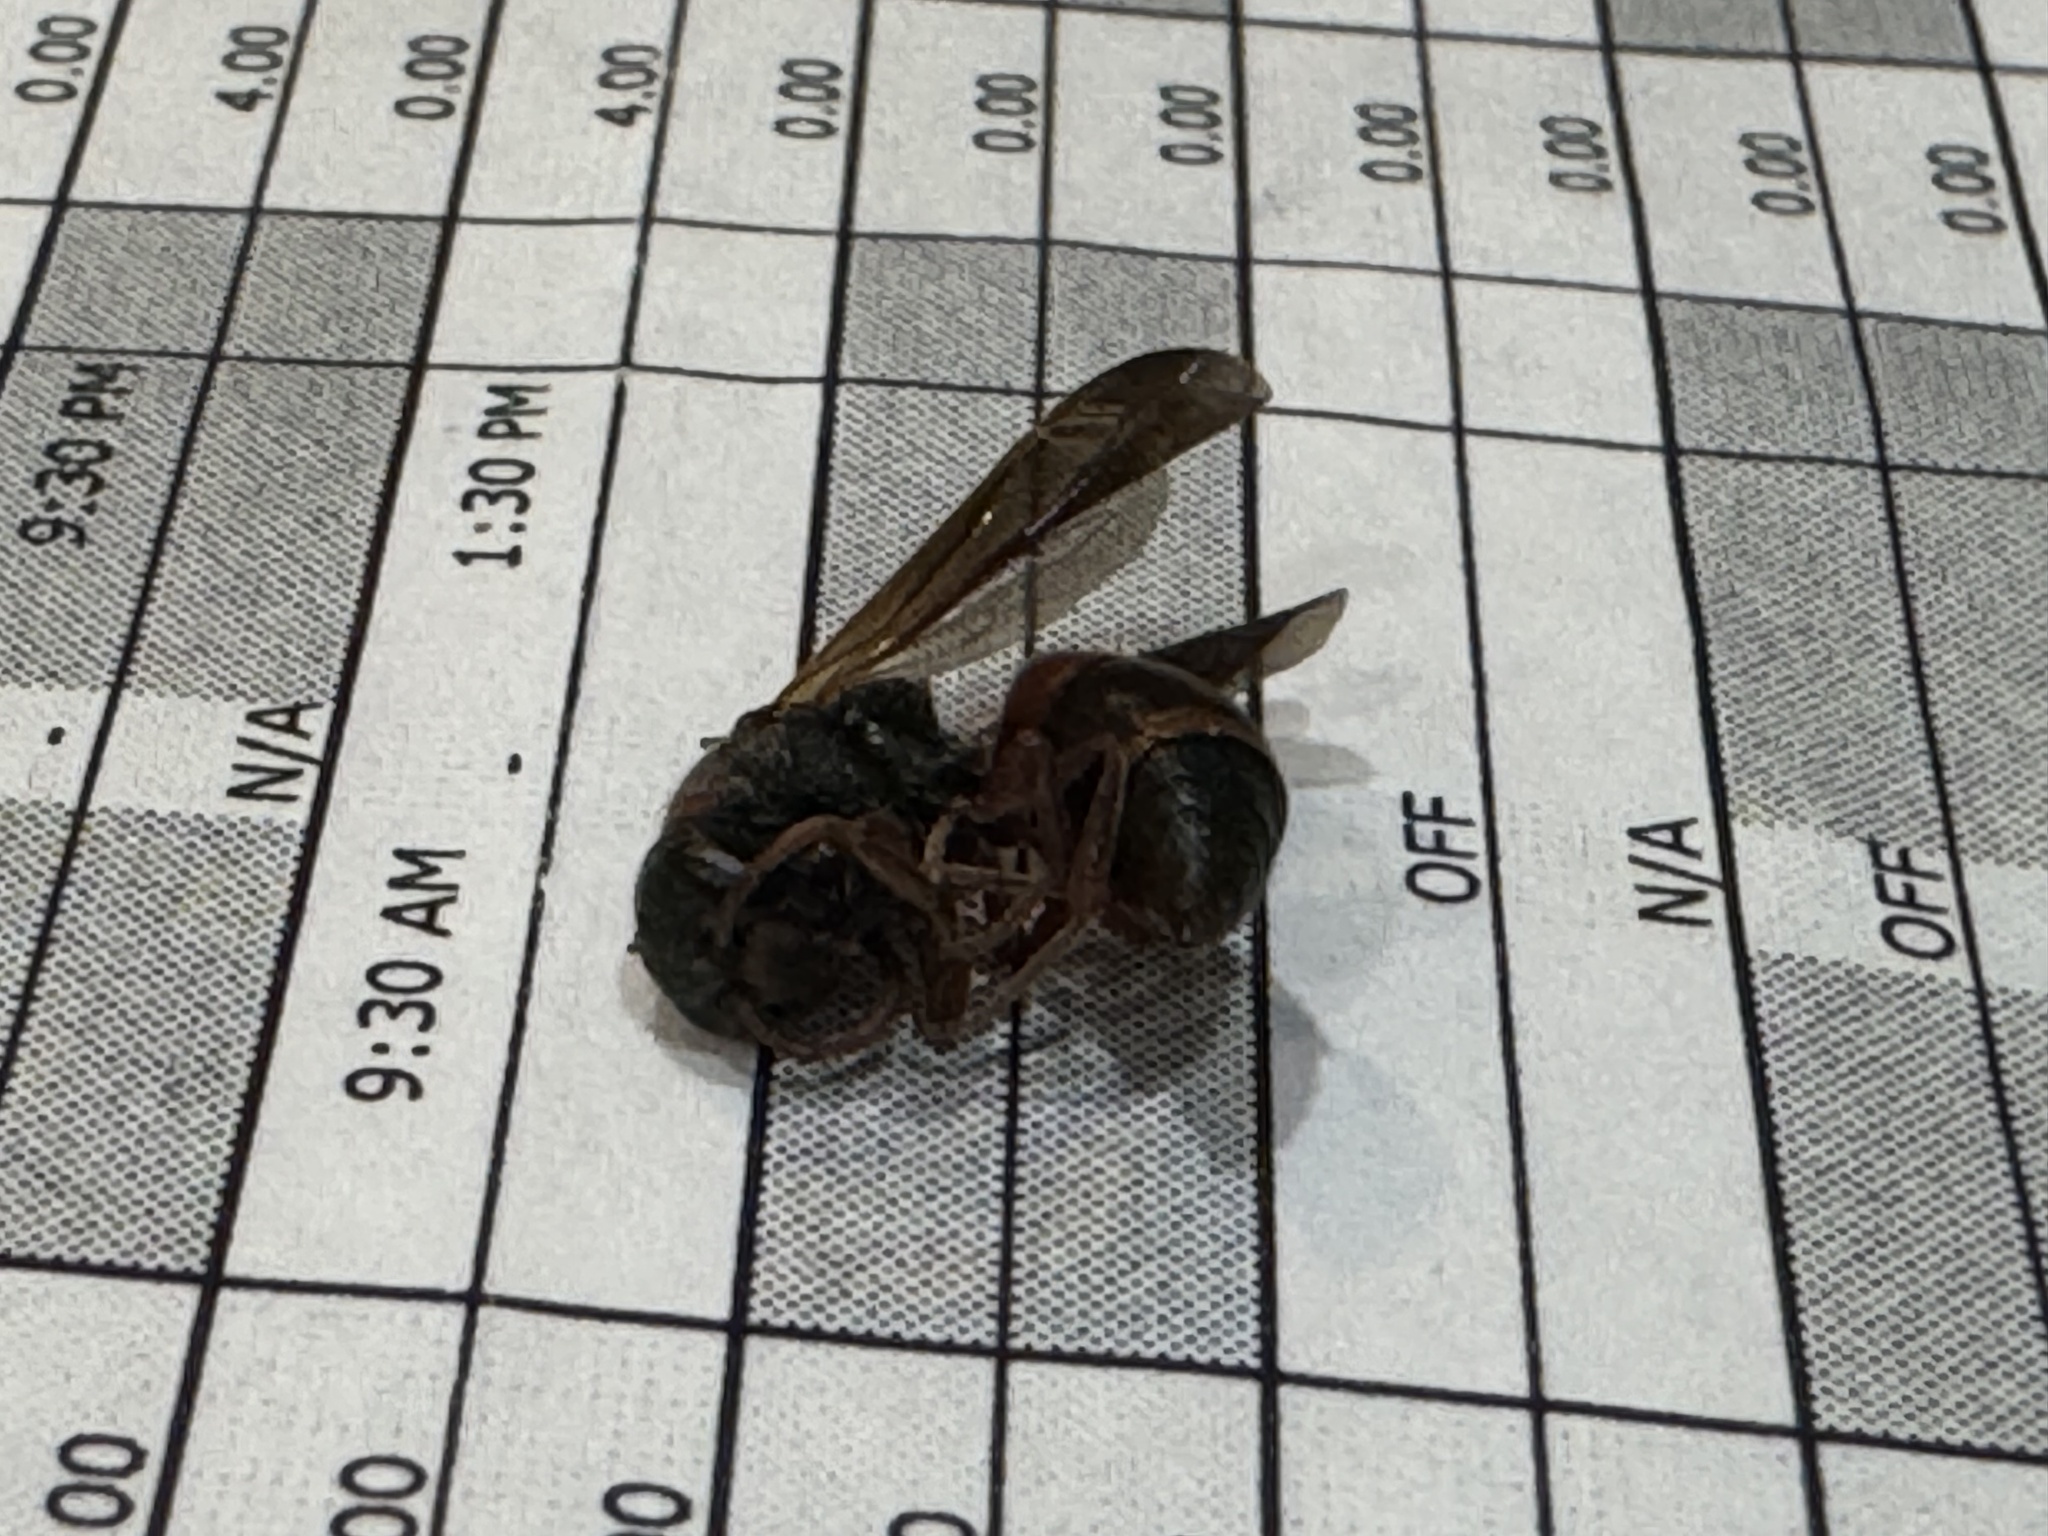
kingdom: Animalia
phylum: Arthropoda
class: Insecta
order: Hymenoptera
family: Eumenidae
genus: Pachodynerus
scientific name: Pachodynerus erynnis
